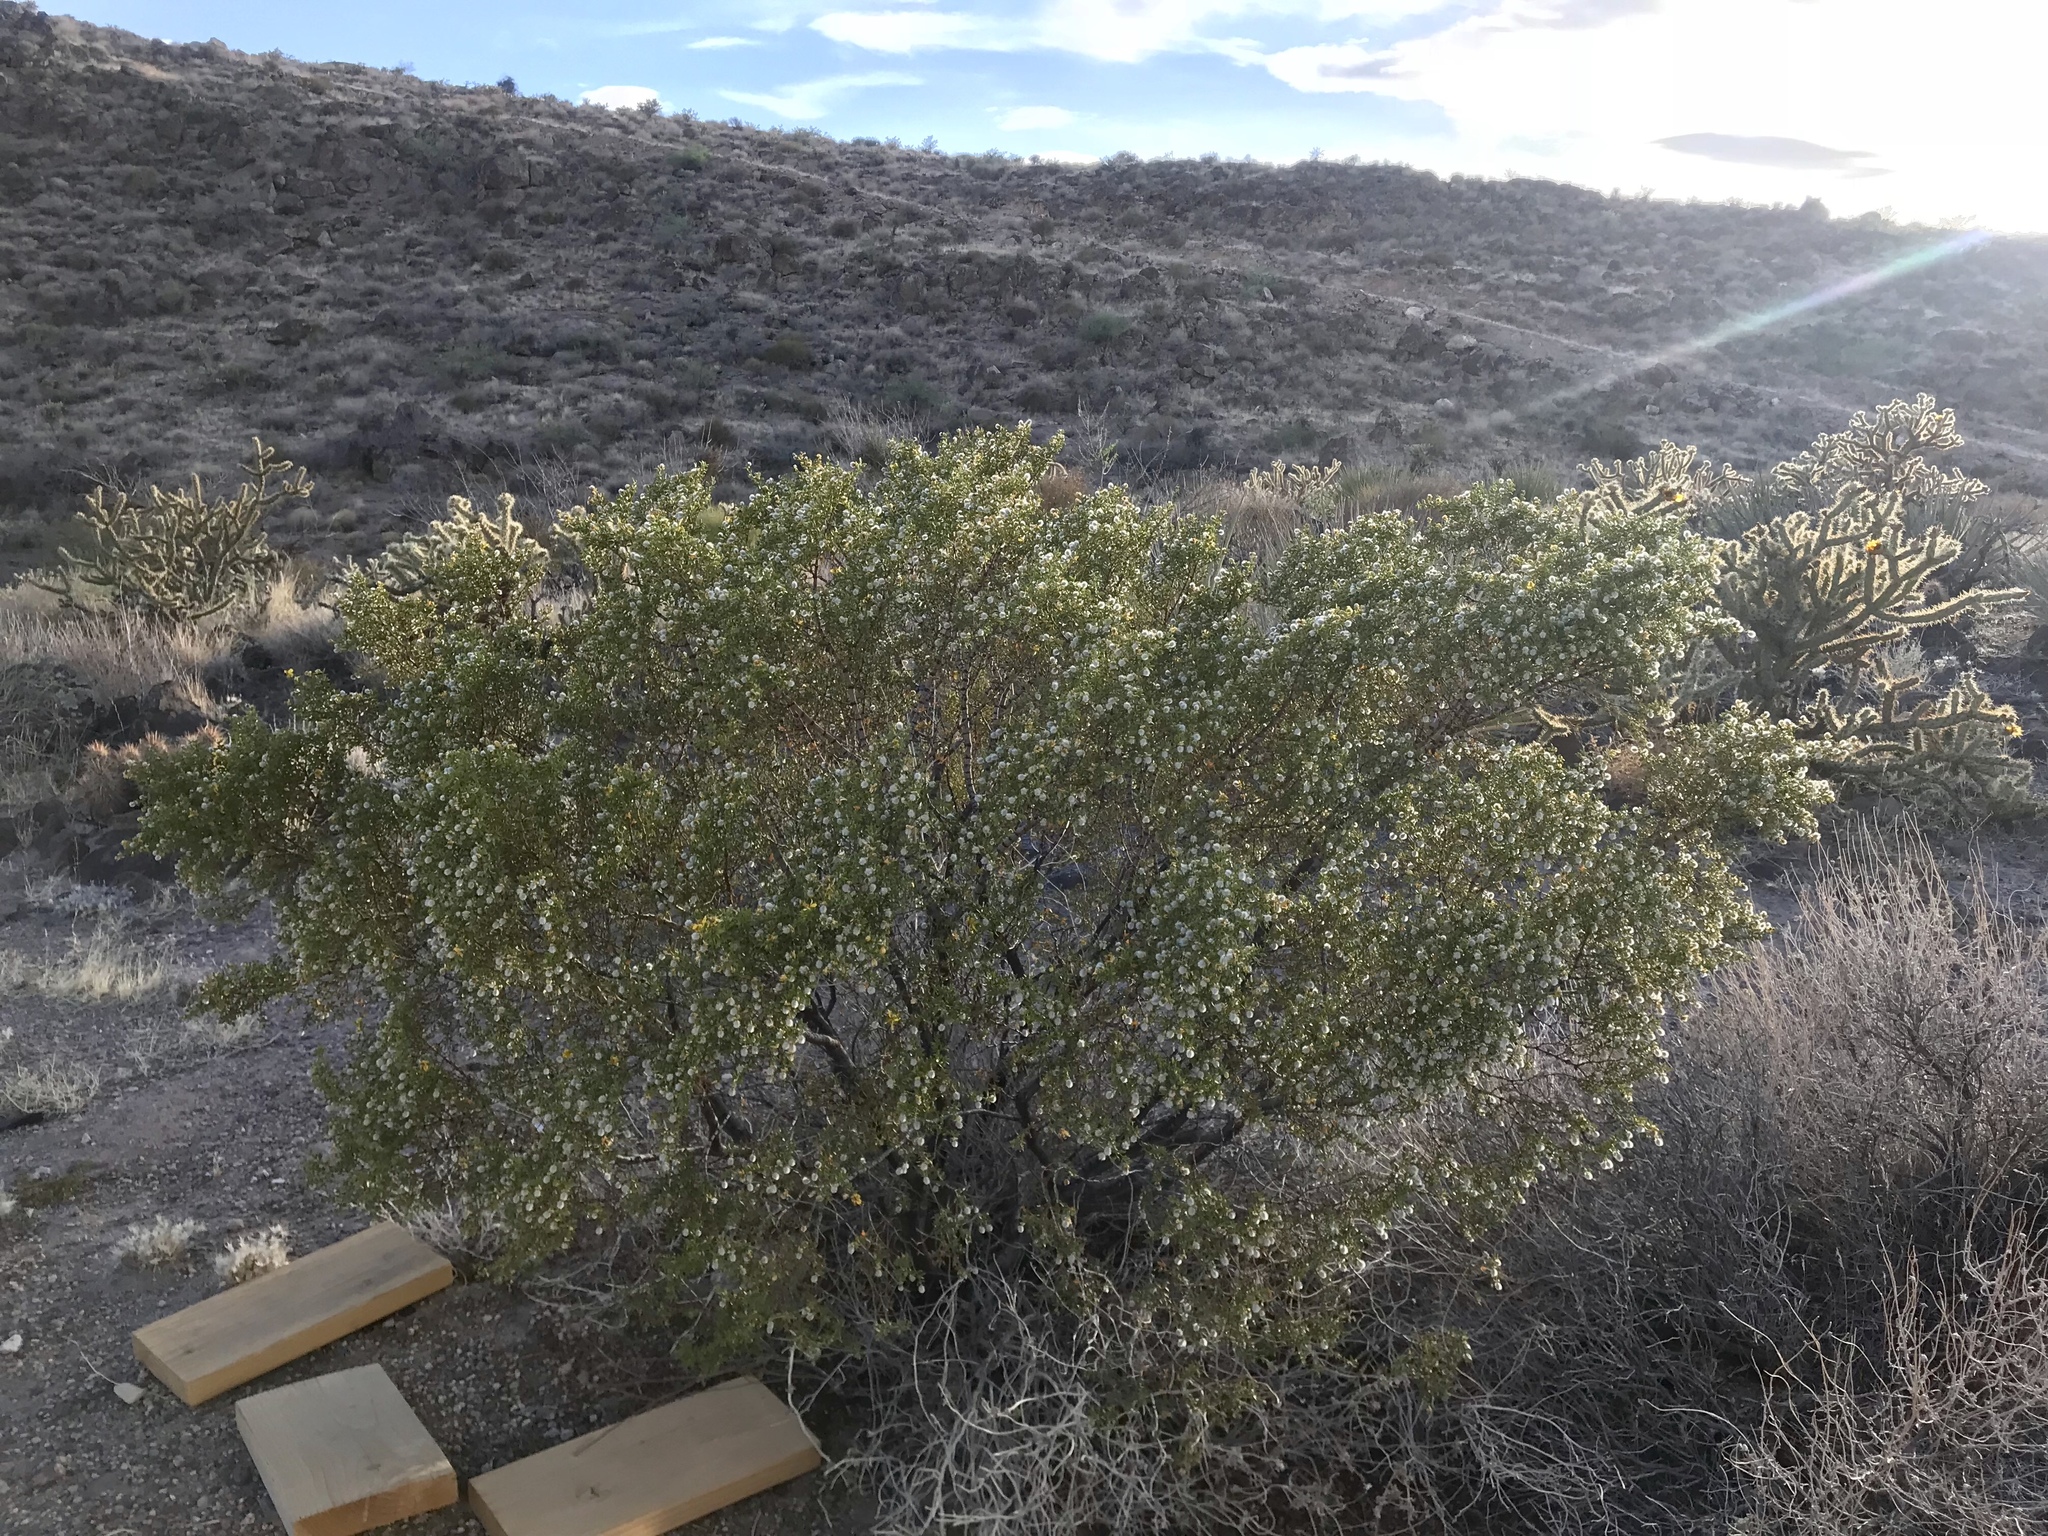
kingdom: Plantae
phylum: Tracheophyta
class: Magnoliopsida
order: Zygophyllales
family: Zygophyllaceae
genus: Larrea
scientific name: Larrea tridentata
